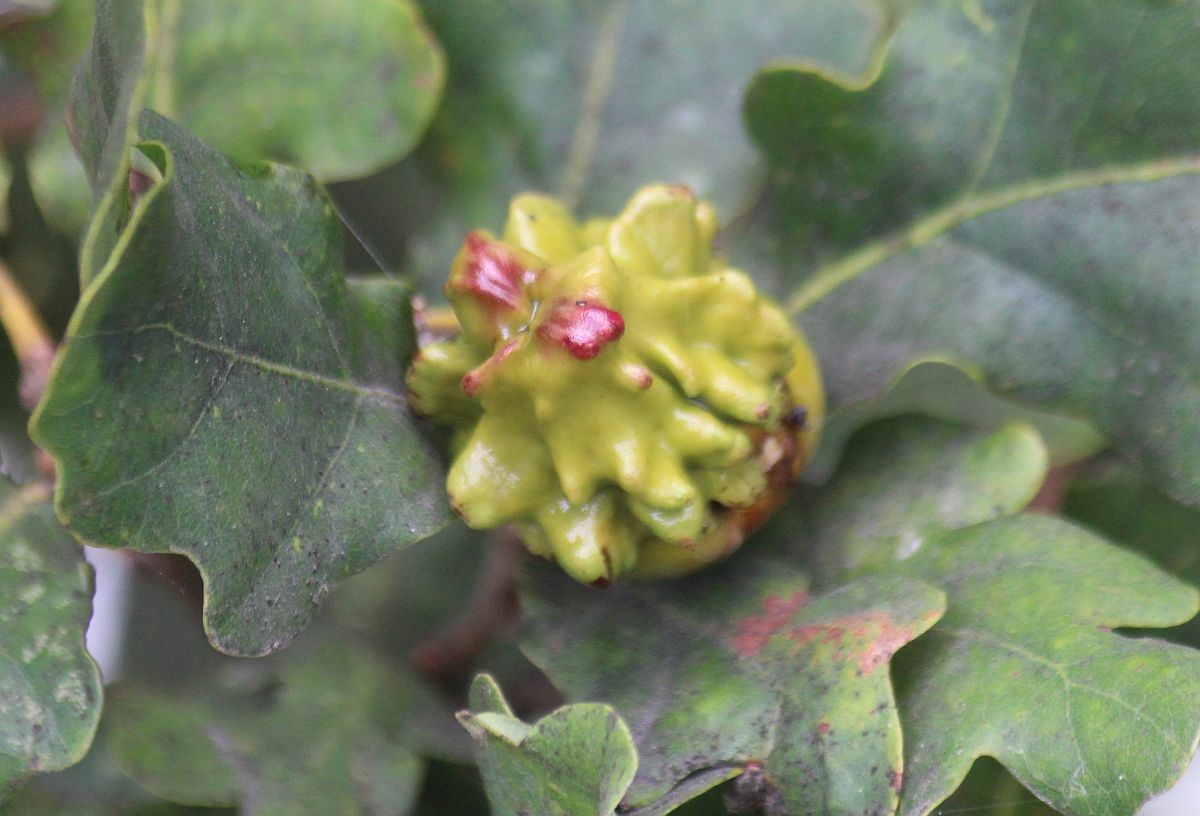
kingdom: Animalia
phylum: Arthropoda
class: Insecta
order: Hymenoptera
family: Cynipidae
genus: Andricus
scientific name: Andricus quercuscalicis
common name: Knopper gall
